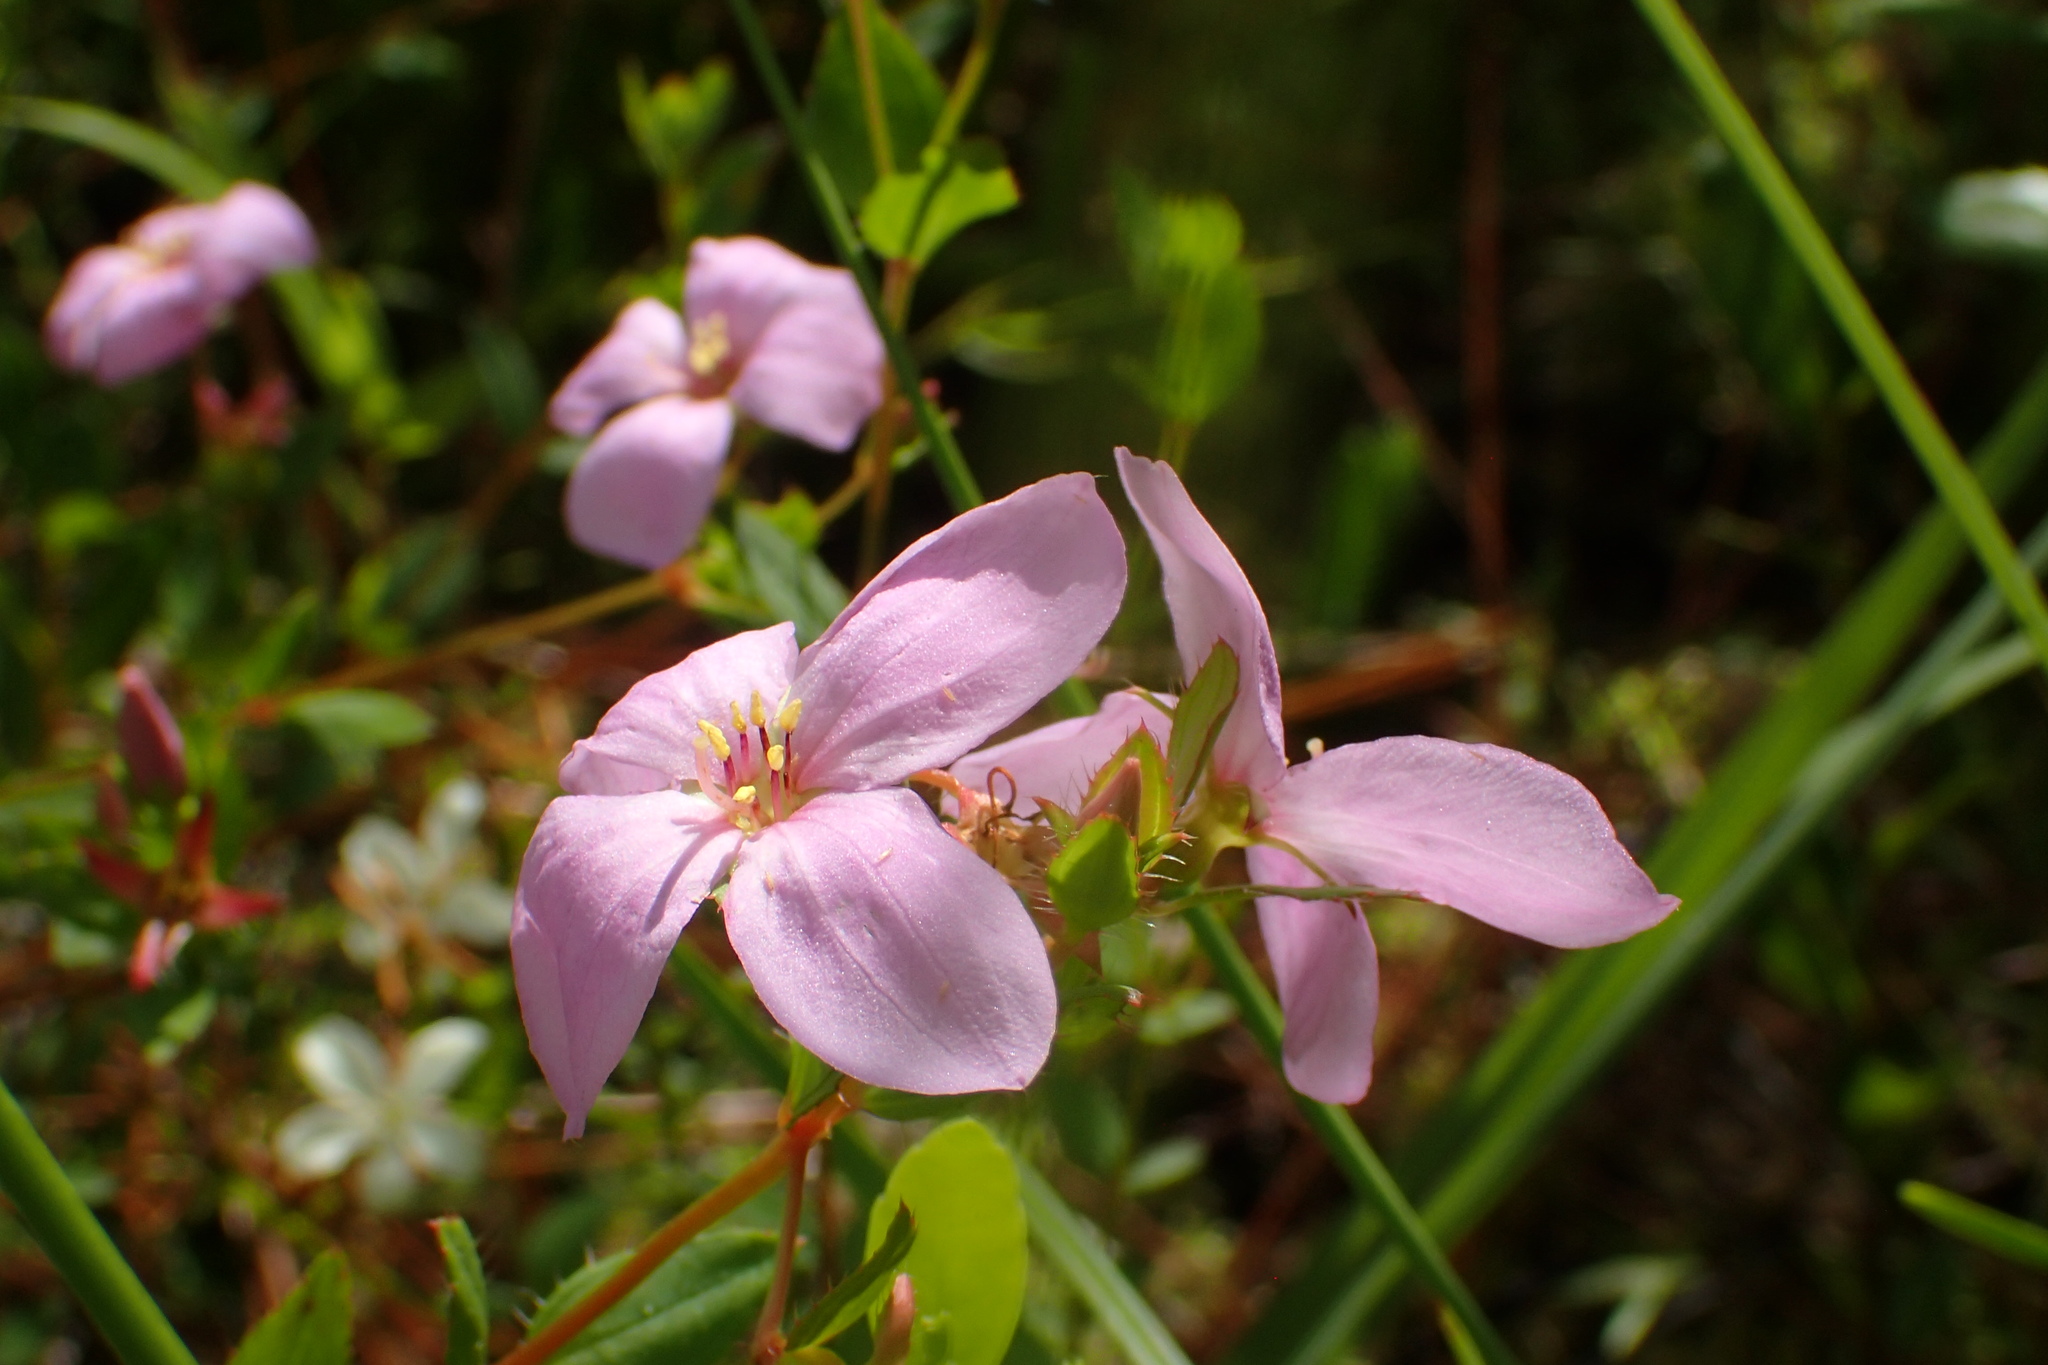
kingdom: Plantae
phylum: Tracheophyta
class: Magnoliopsida
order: Myrtales
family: Melastomataceae
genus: Rhexia
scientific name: Rhexia petiolata
